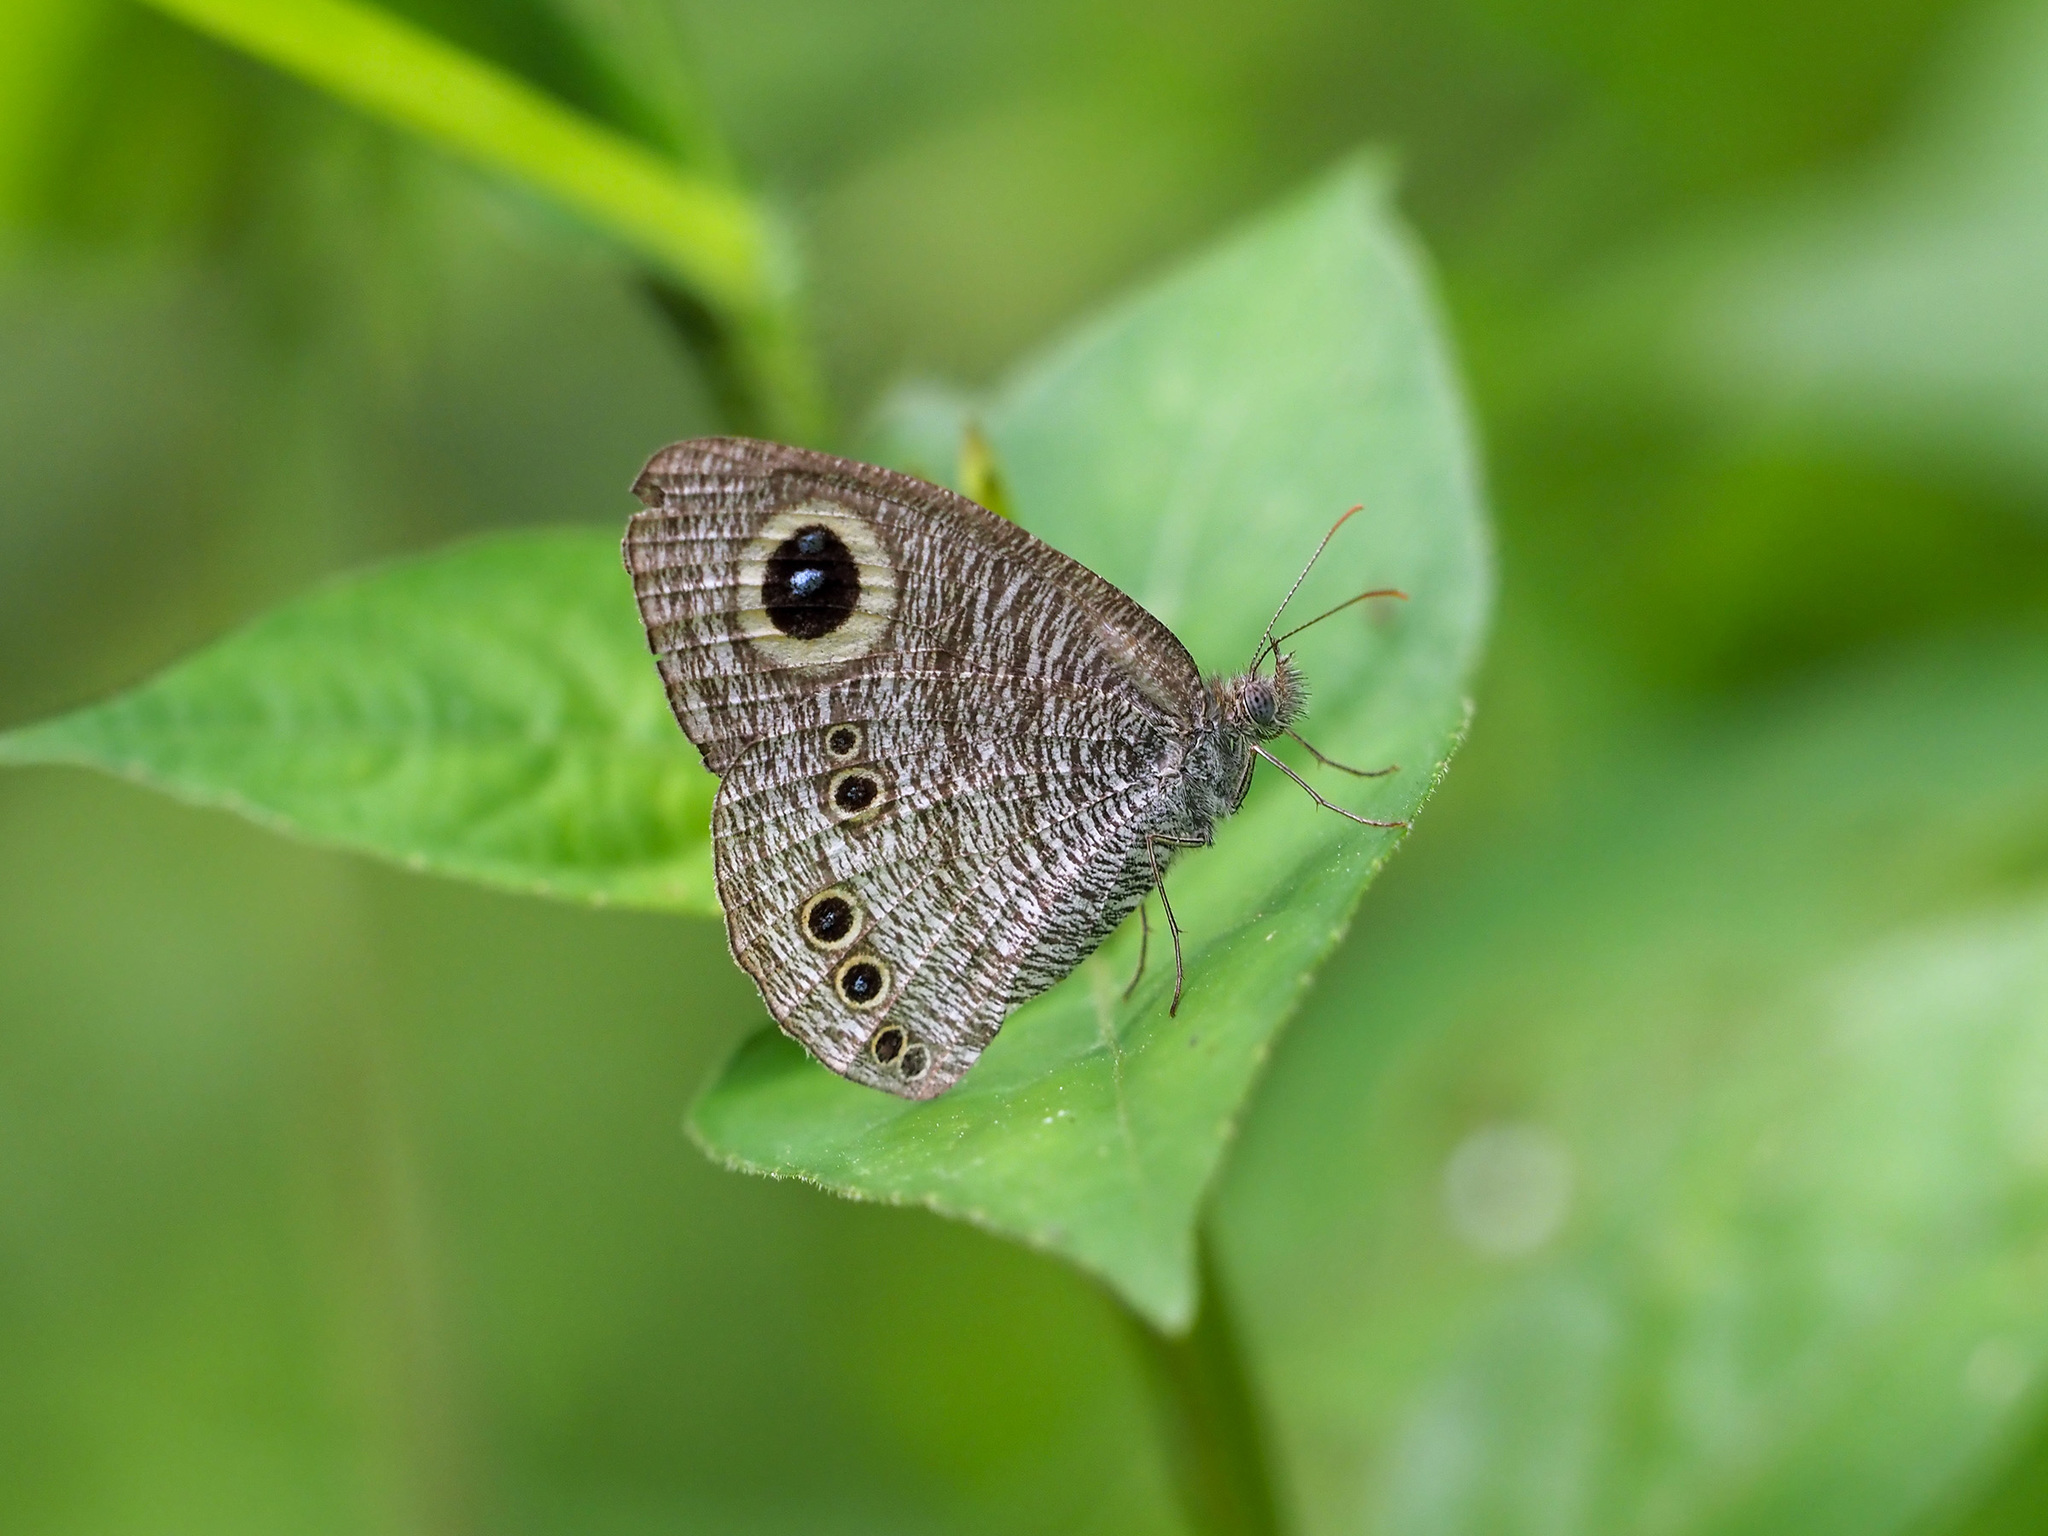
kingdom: Animalia
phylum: Arthropoda
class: Insecta
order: Lepidoptera
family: Nymphalidae
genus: Ypthima
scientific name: Ypthima baldus
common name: Common five-ring
